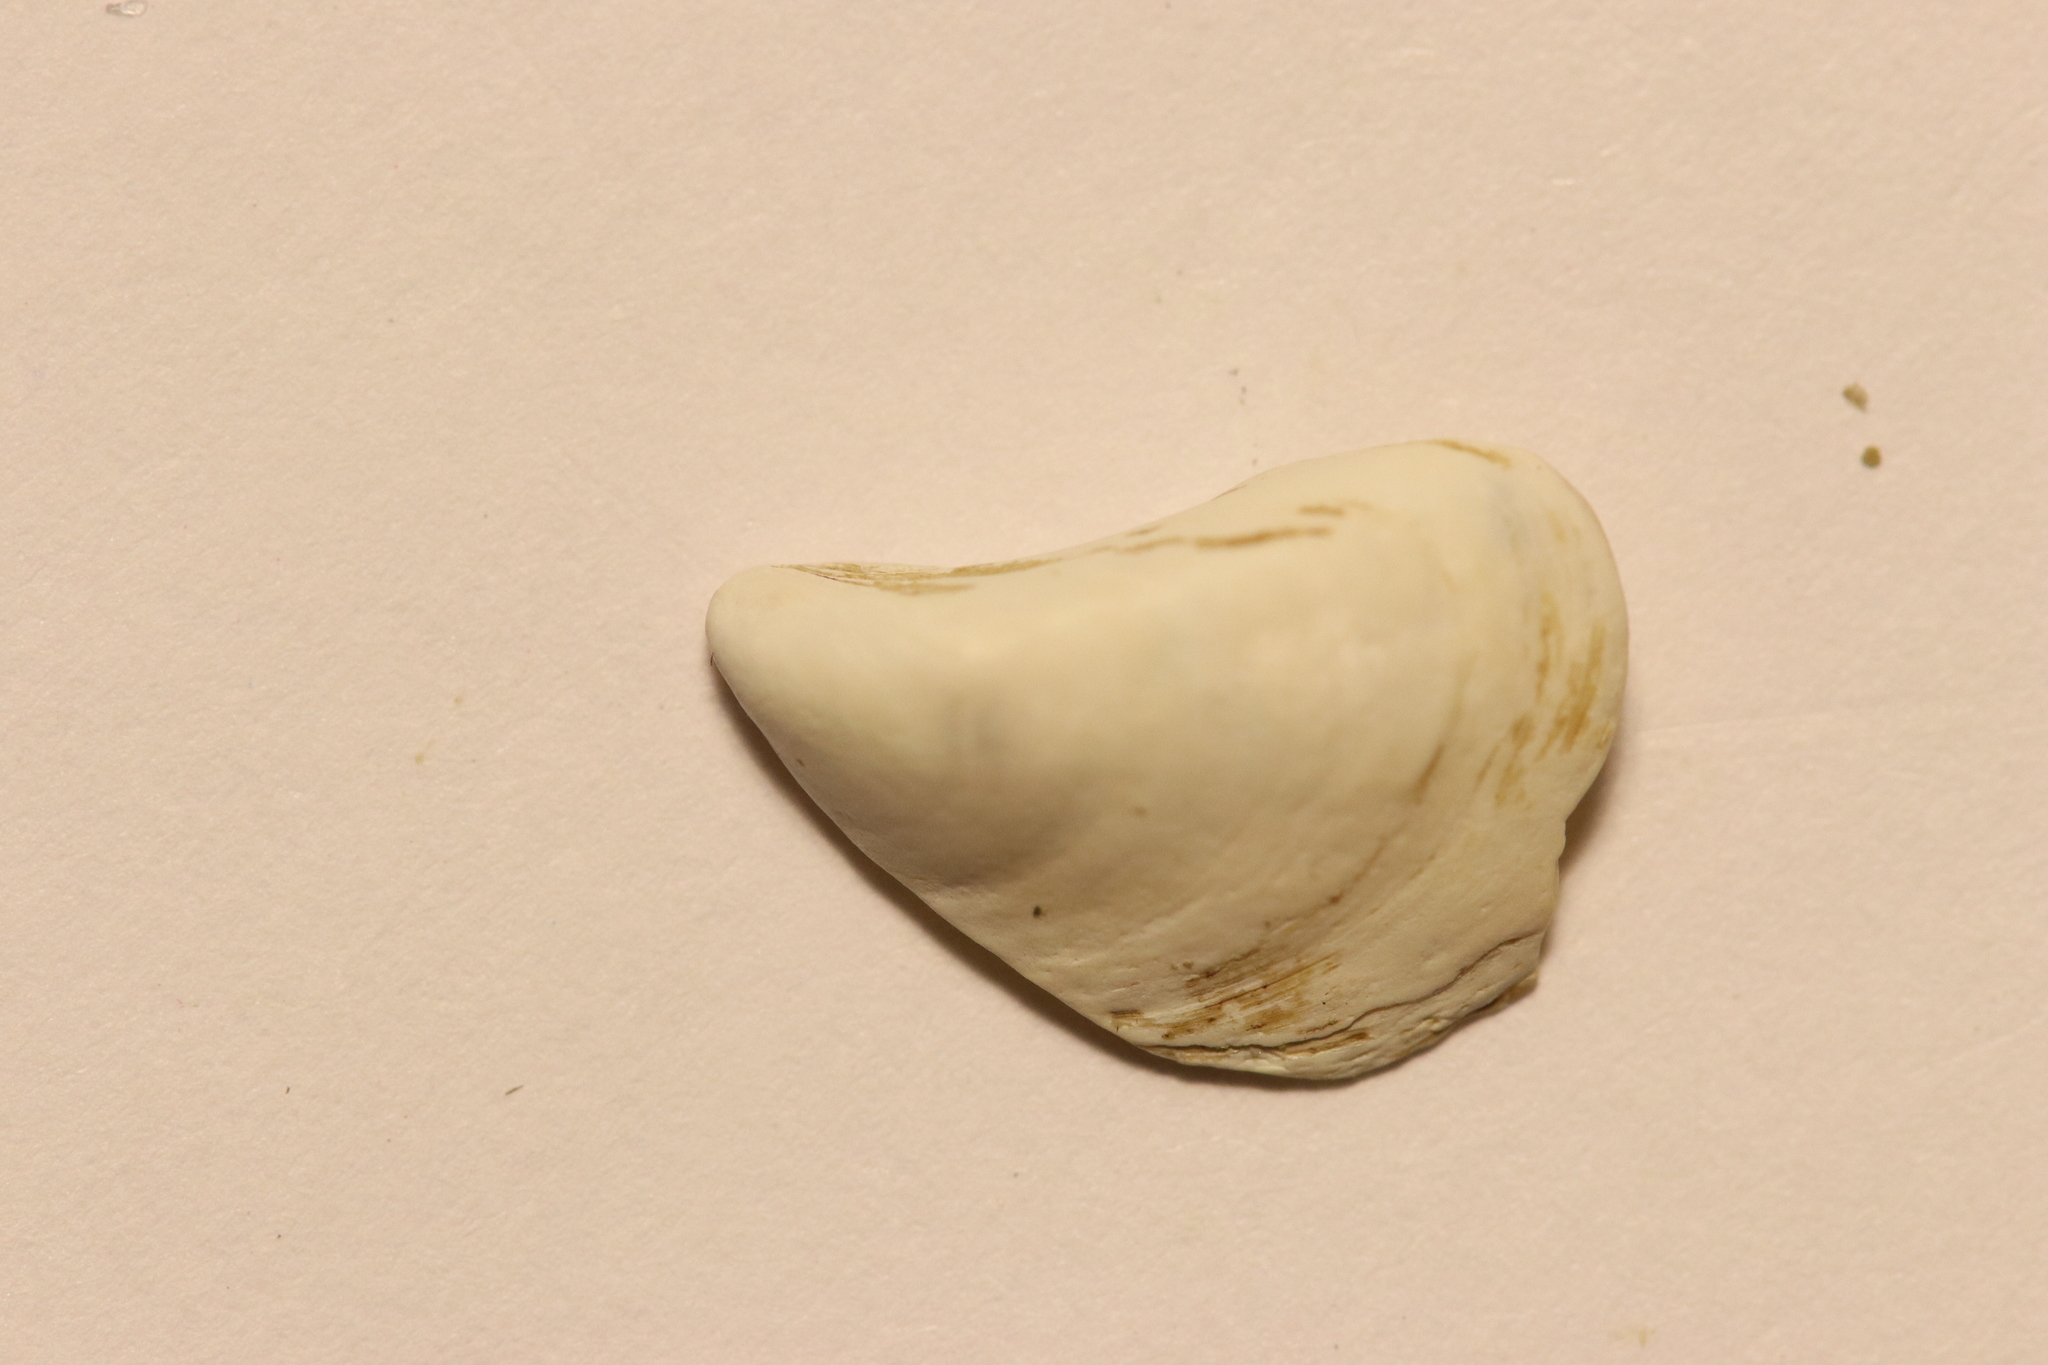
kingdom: Animalia
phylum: Mollusca
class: Bivalvia
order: Myida
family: Dreissenidae
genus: Dreissena
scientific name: Dreissena bugensis
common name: Quagga mussel
